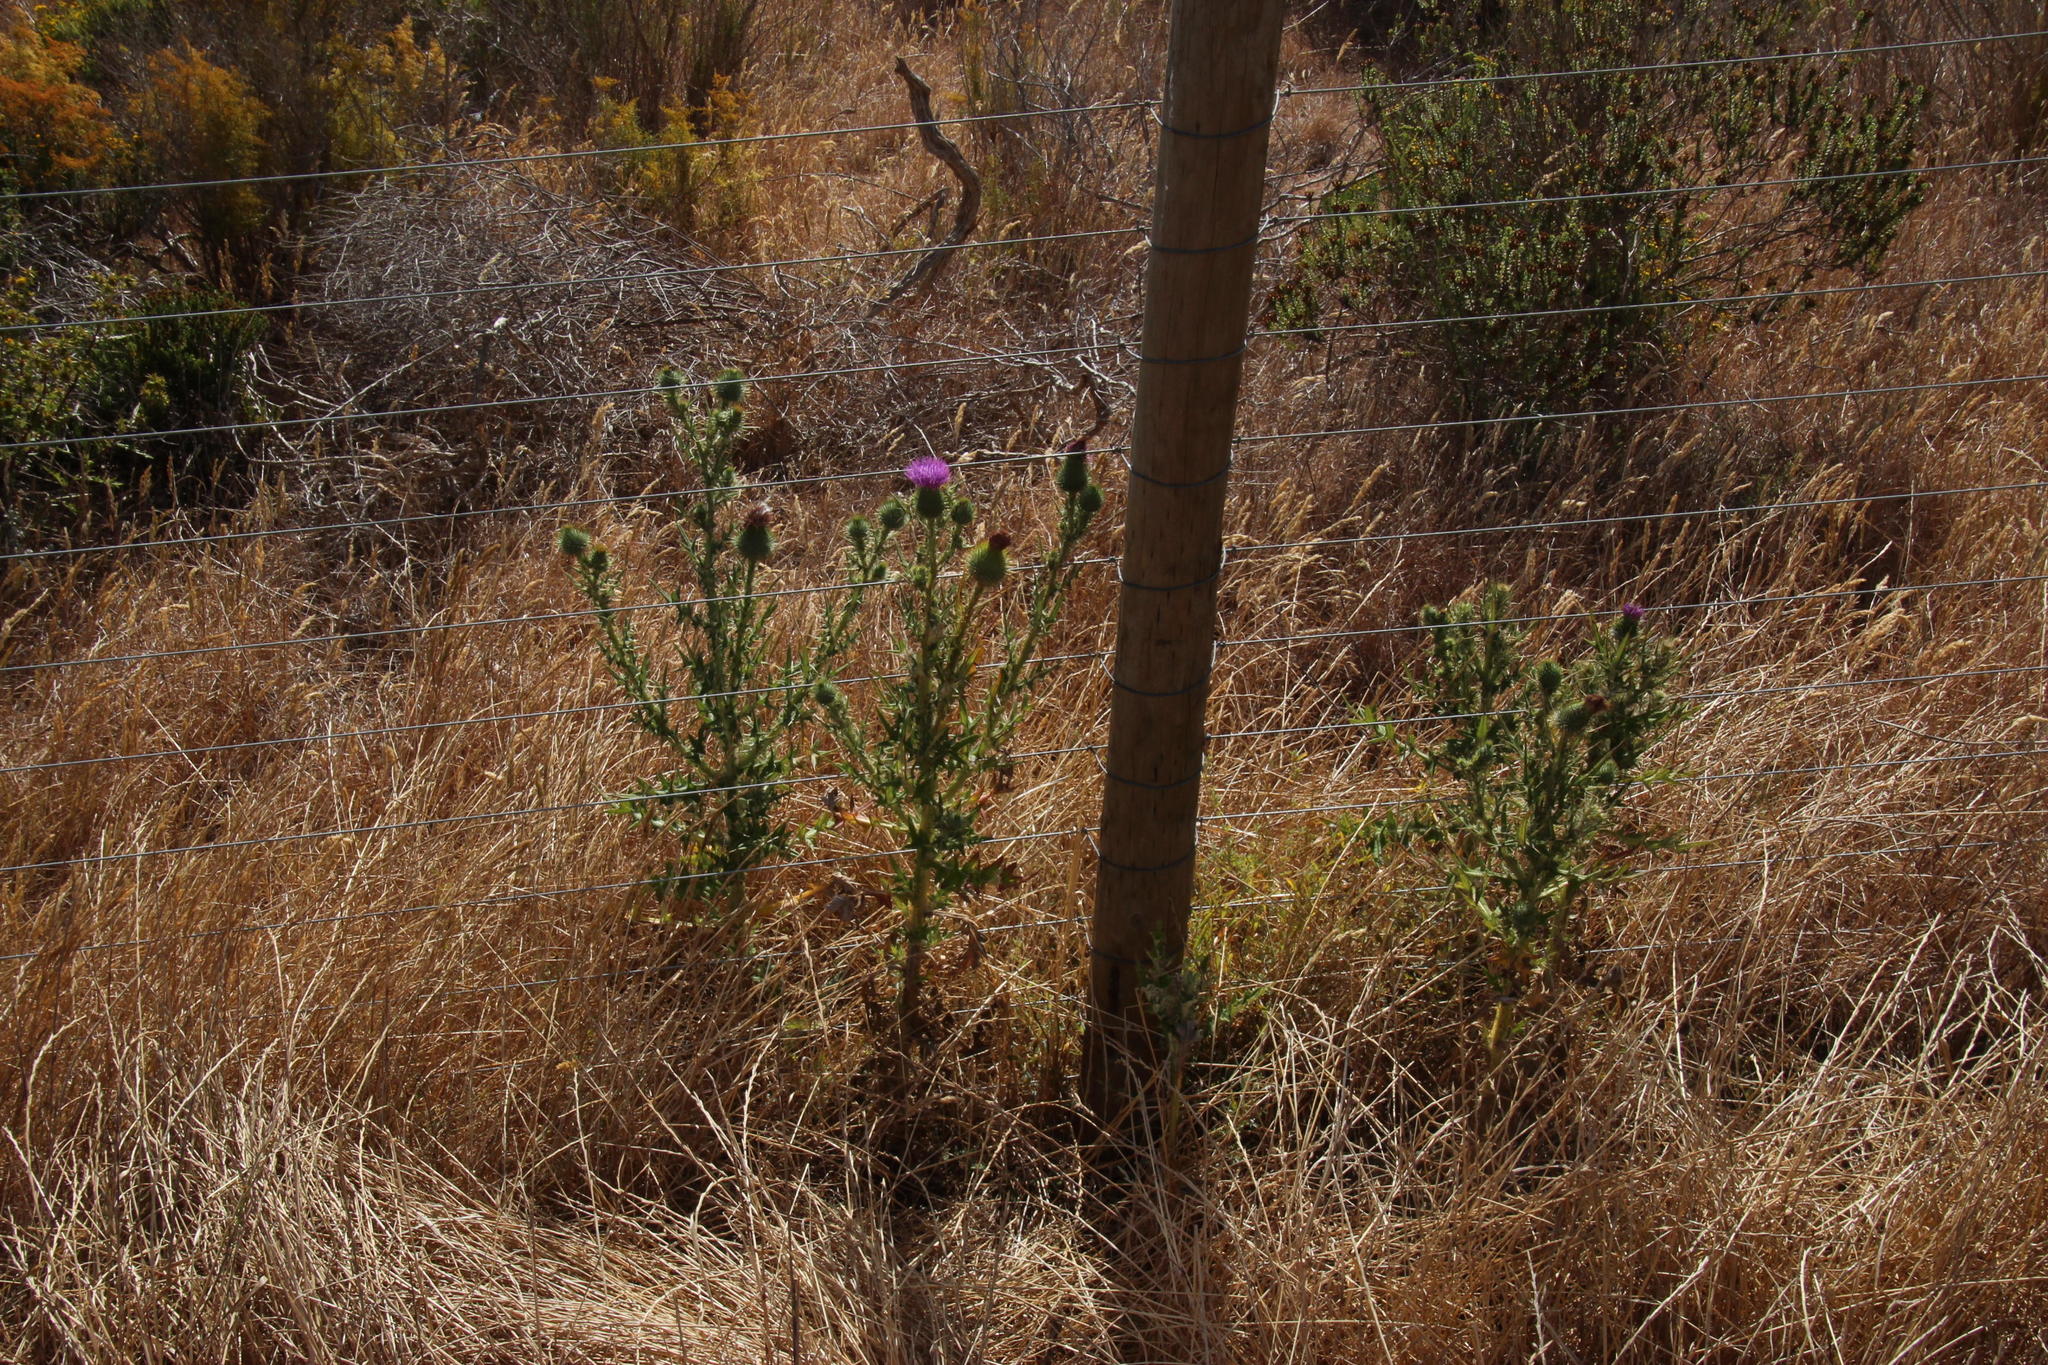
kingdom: Plantae
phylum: Tracheophyta
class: Magnoliopsida
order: Asterales
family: Asteraceae
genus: Cirsium
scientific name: Cirsium vulgare
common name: Bull thistle
